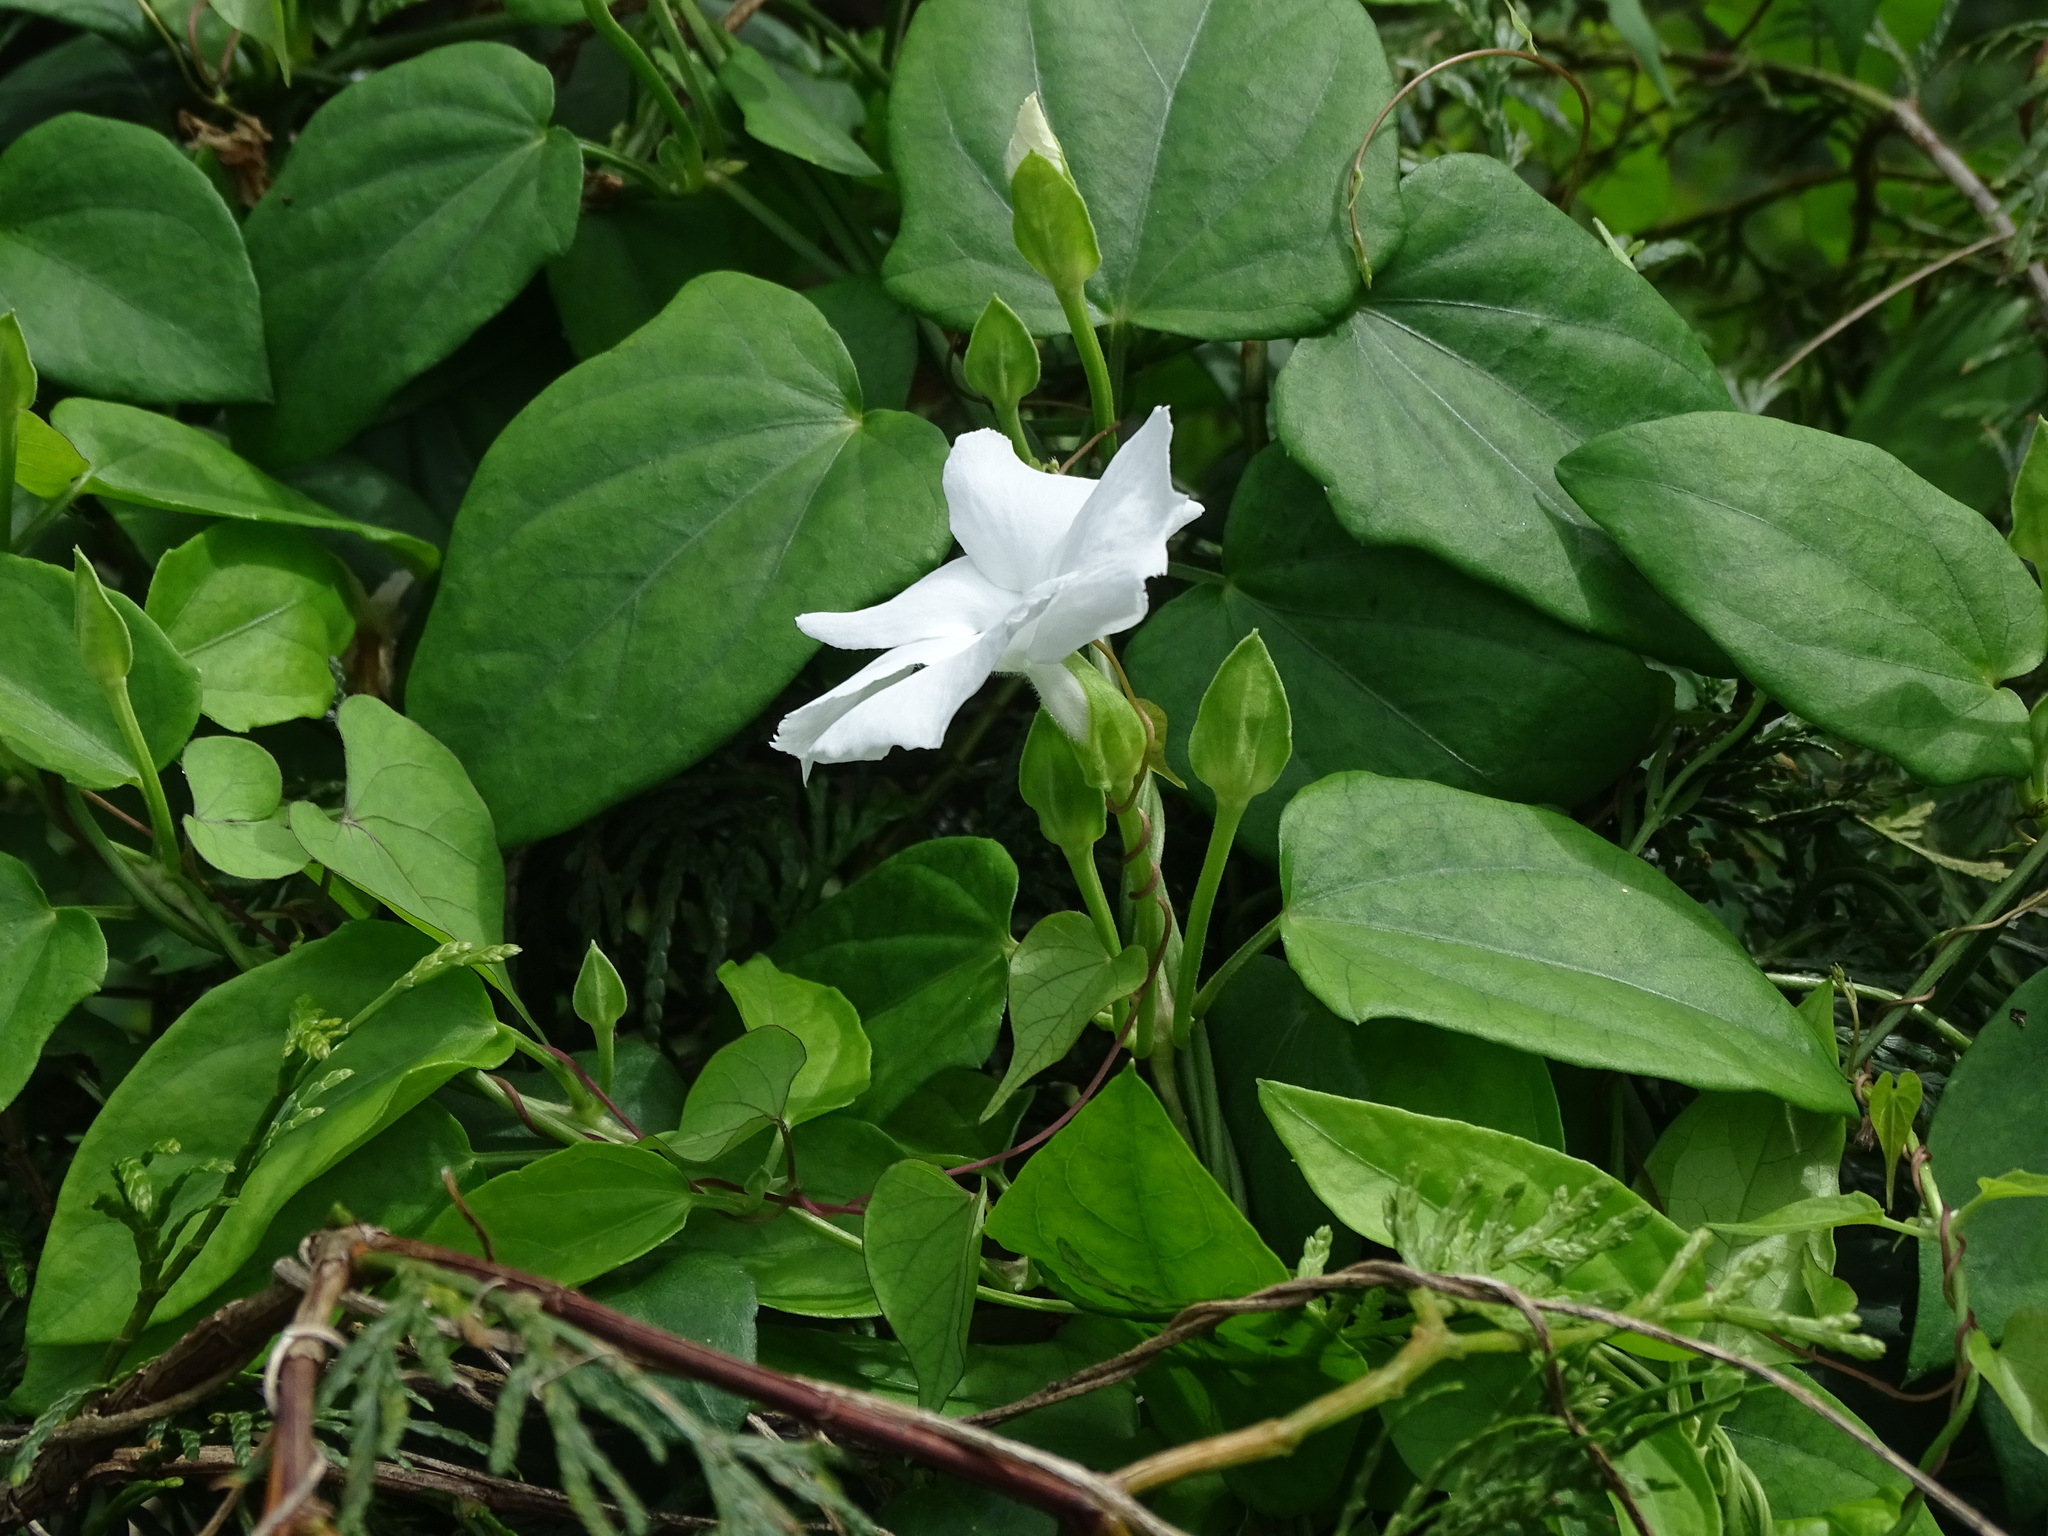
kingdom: Plantae
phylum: Tracheophyta
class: Magnoliopsida
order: Lamiales
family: Acanthaceae
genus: Thunbergia
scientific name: Thunbergia fragrans
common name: Whitelady
